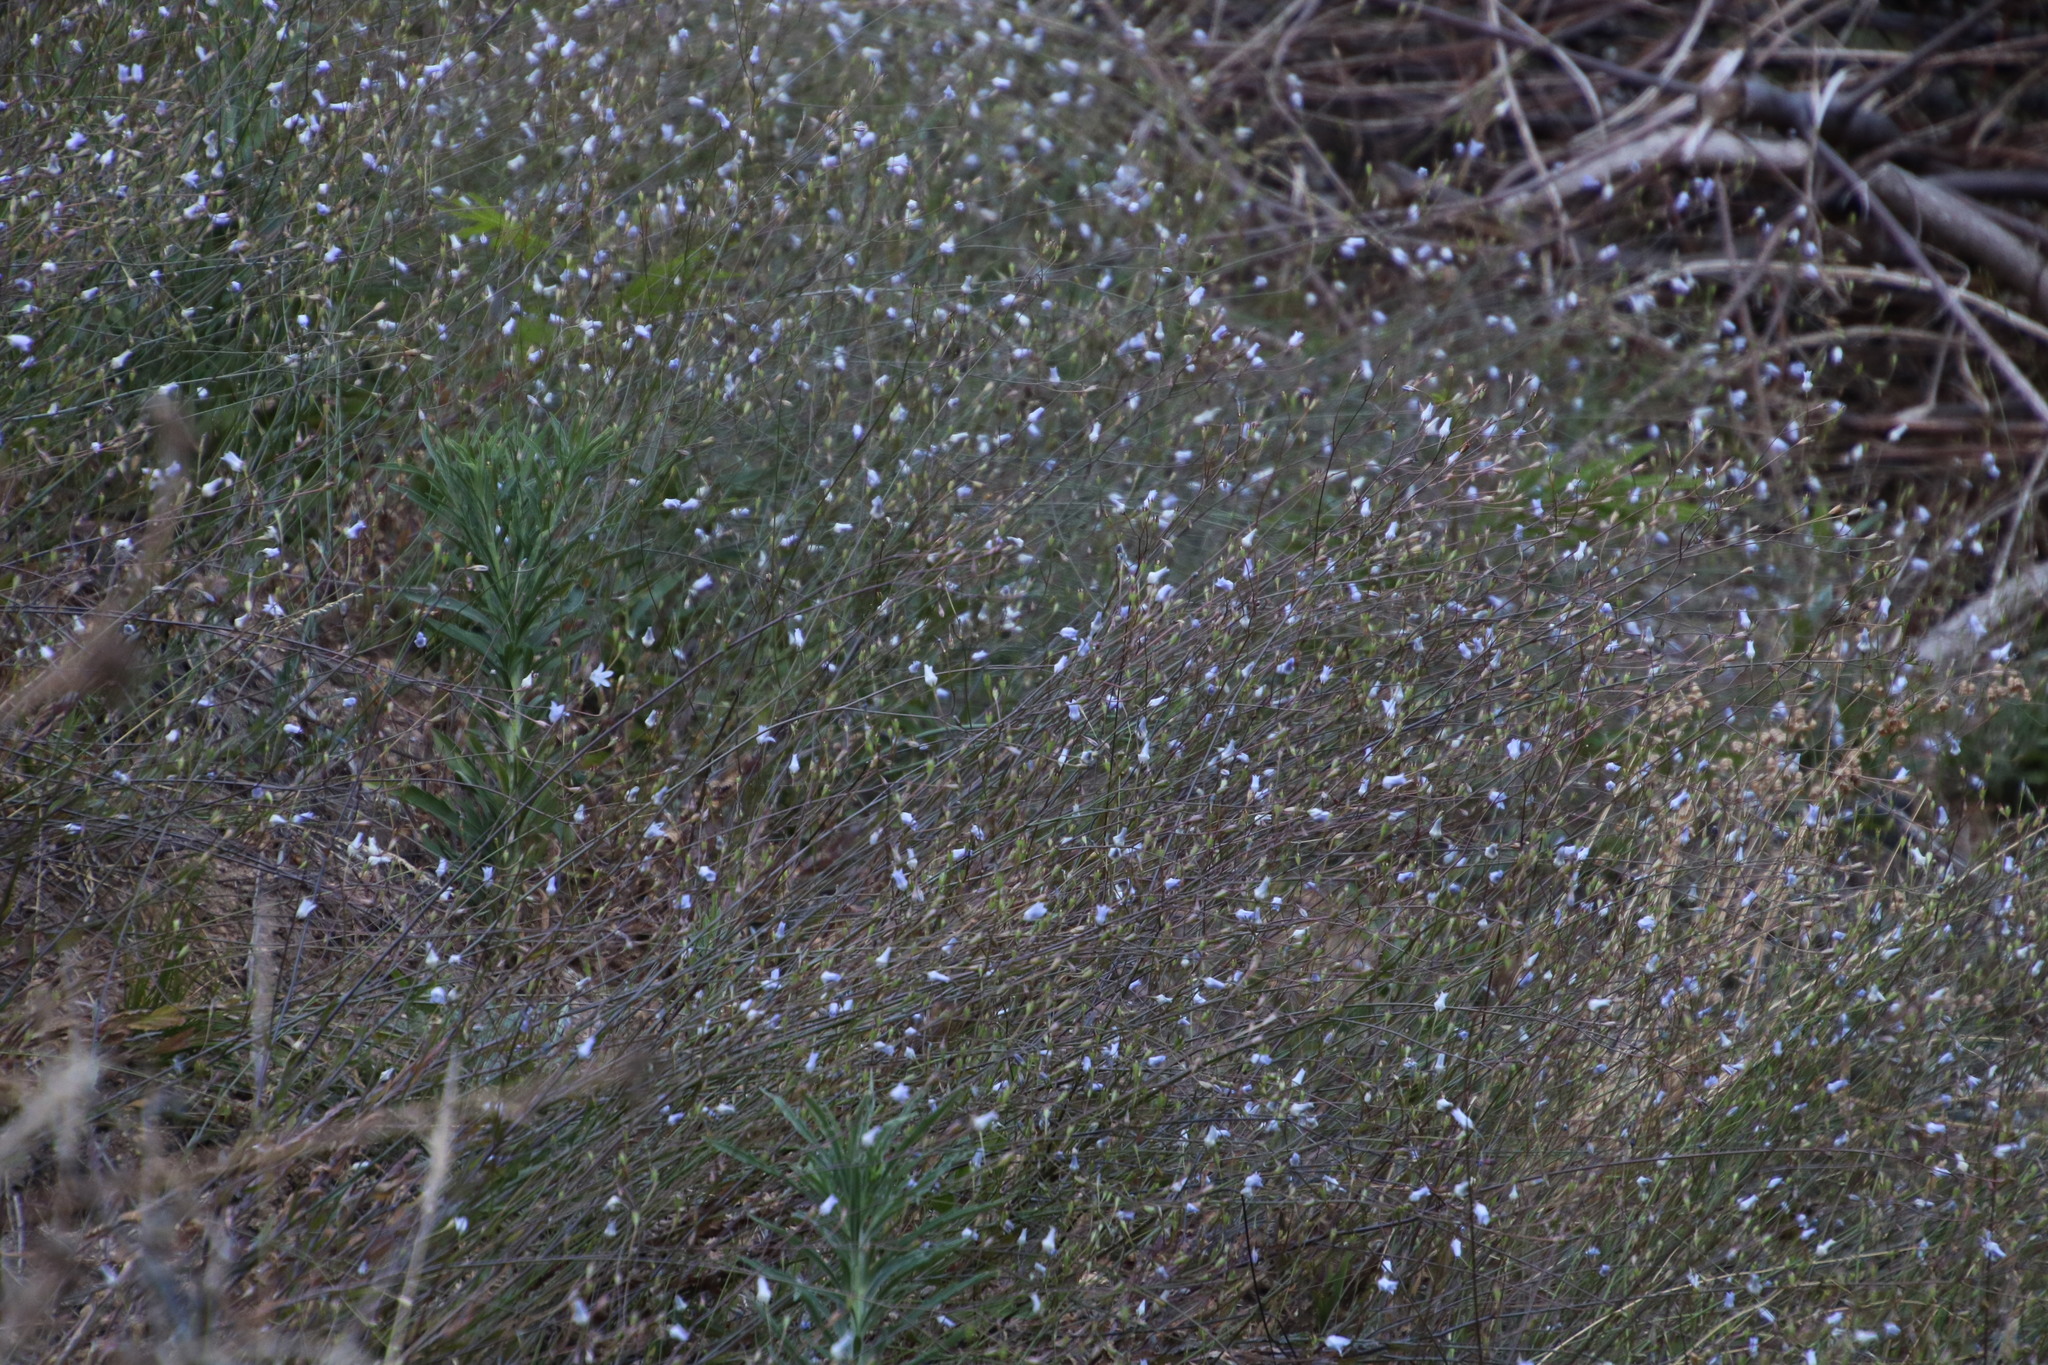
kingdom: Plantae
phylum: Tracheophyta
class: Magnoliopsida
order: Asterales
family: Campanulaceae
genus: Wahlenbergia
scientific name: Wahlenbergia obovata
